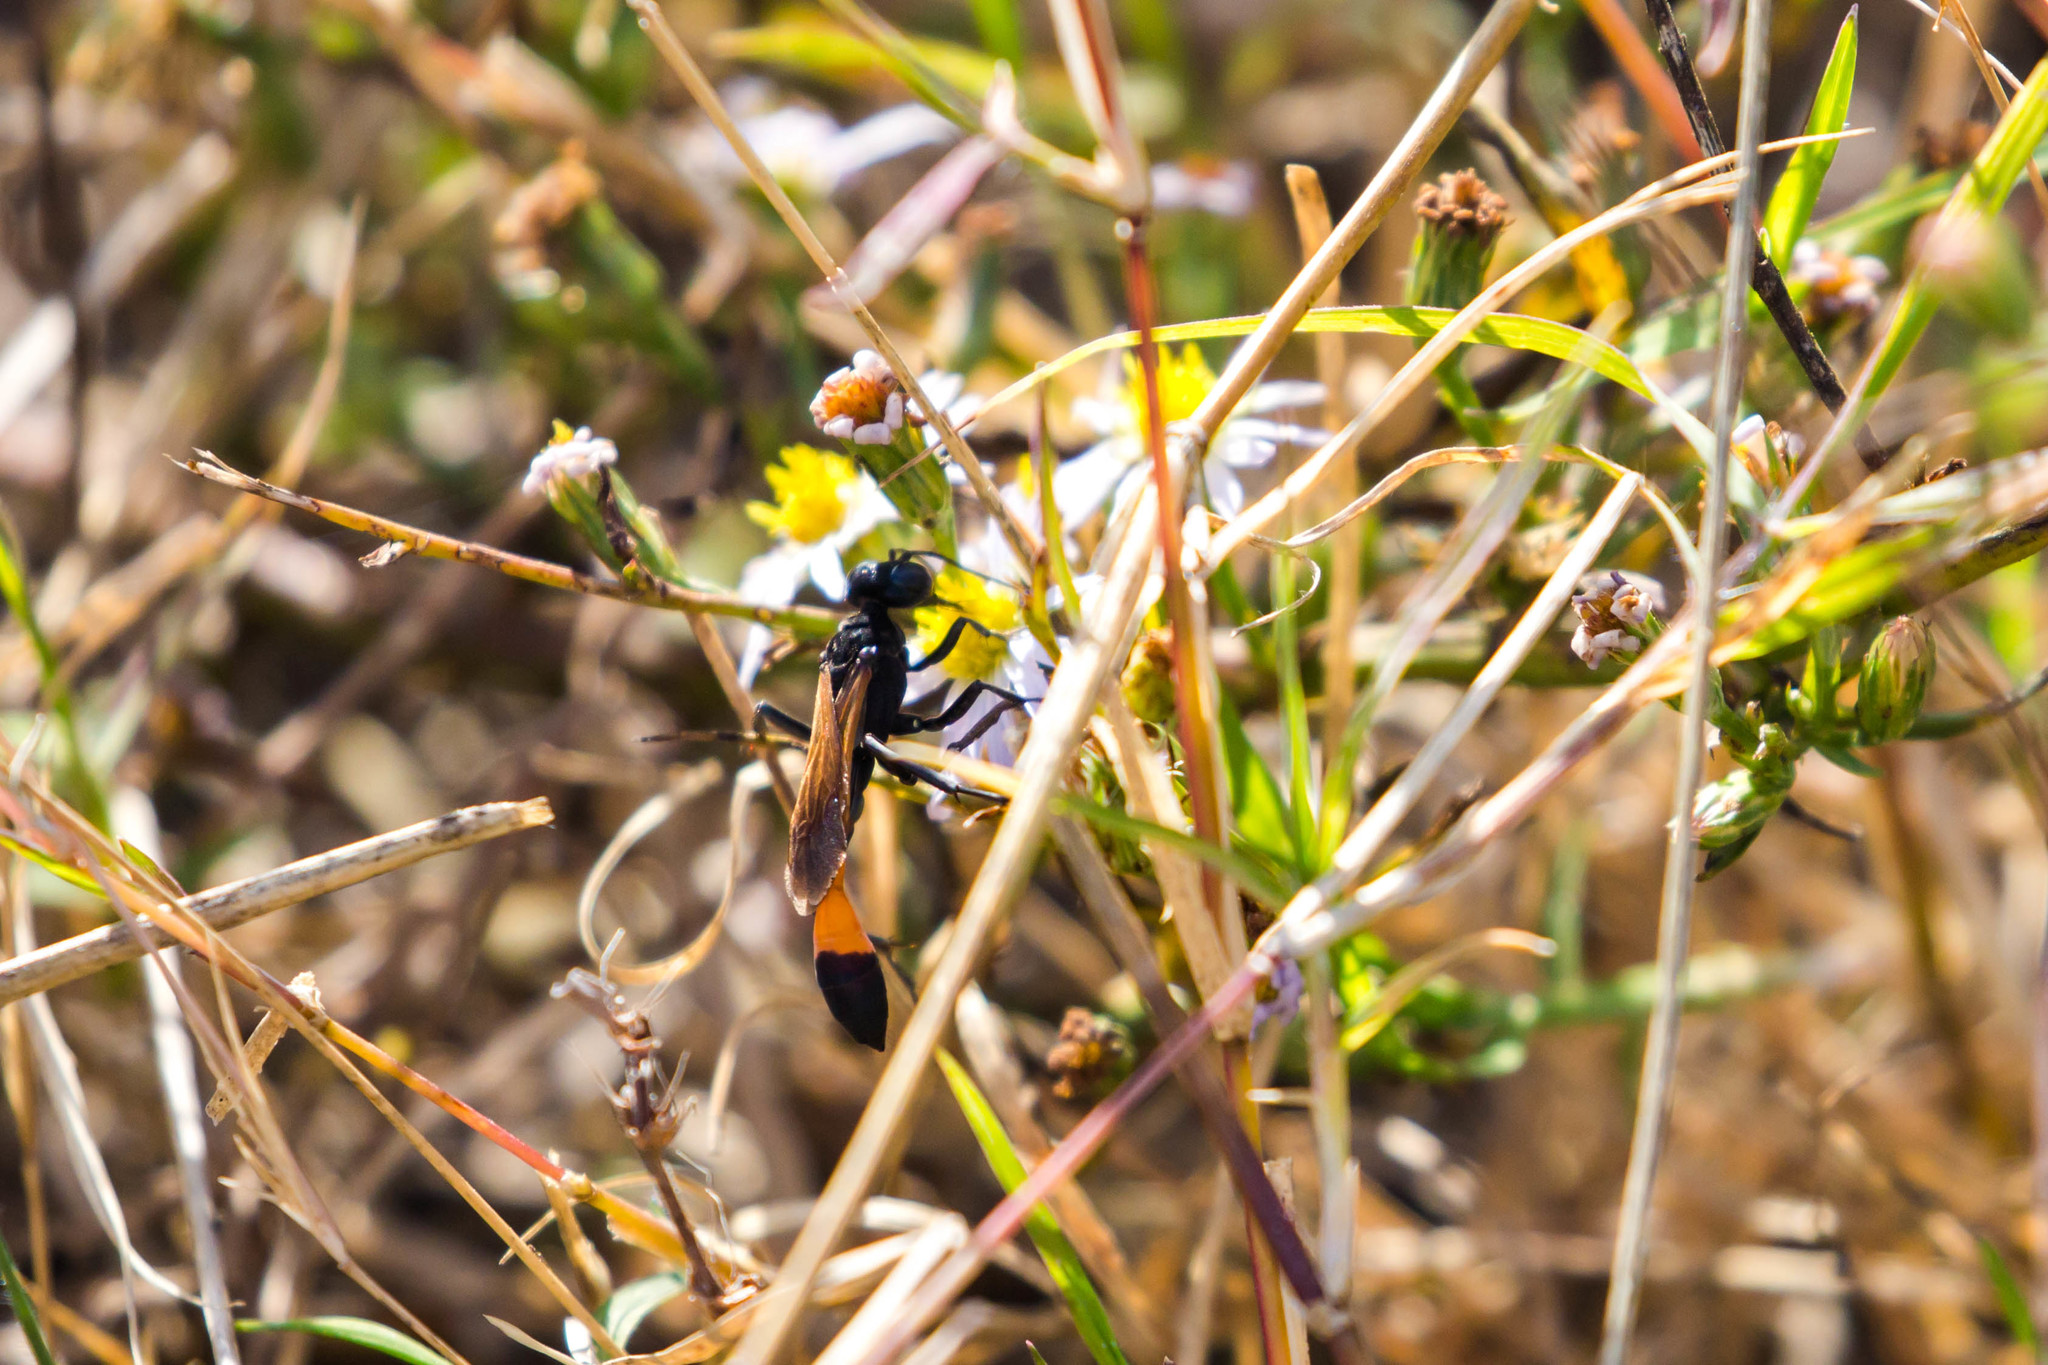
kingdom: Animalia
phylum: Arthropoda
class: Insecta
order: Hymenoptera
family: Sphecidae
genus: Ammophila
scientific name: Ammophila pictipennis
